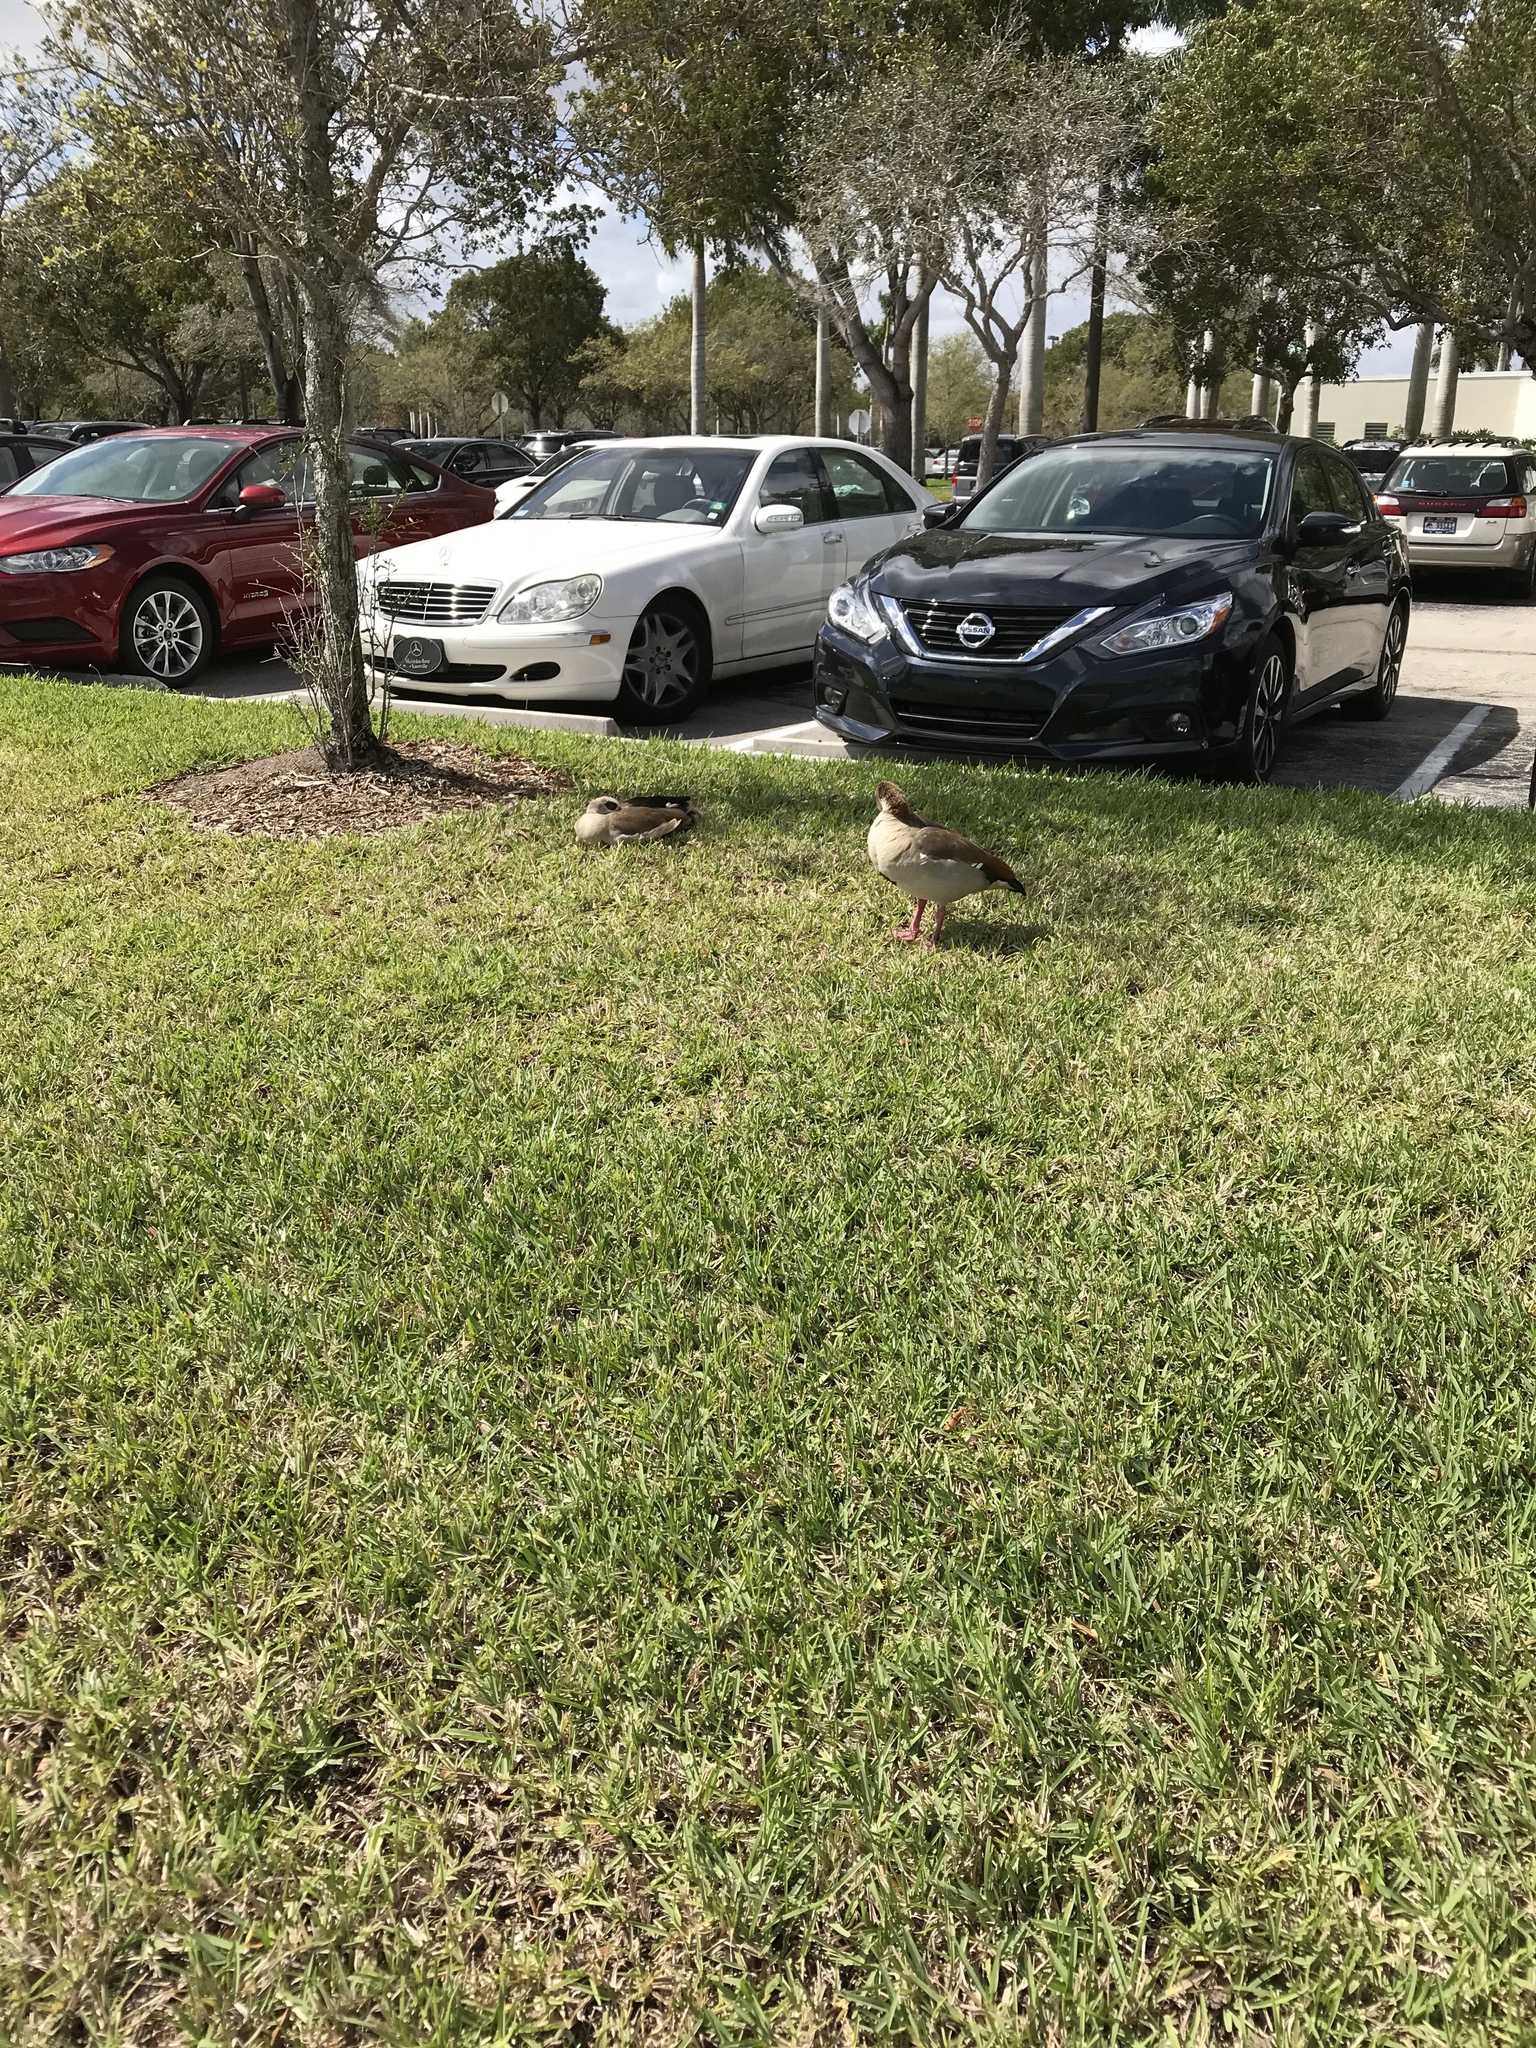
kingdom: Animalia
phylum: Chordata
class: Aves
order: Anseriformes
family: Anatidae
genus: Alopochen
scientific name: Alopochen aegyptiaca
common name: Egyptian goose
